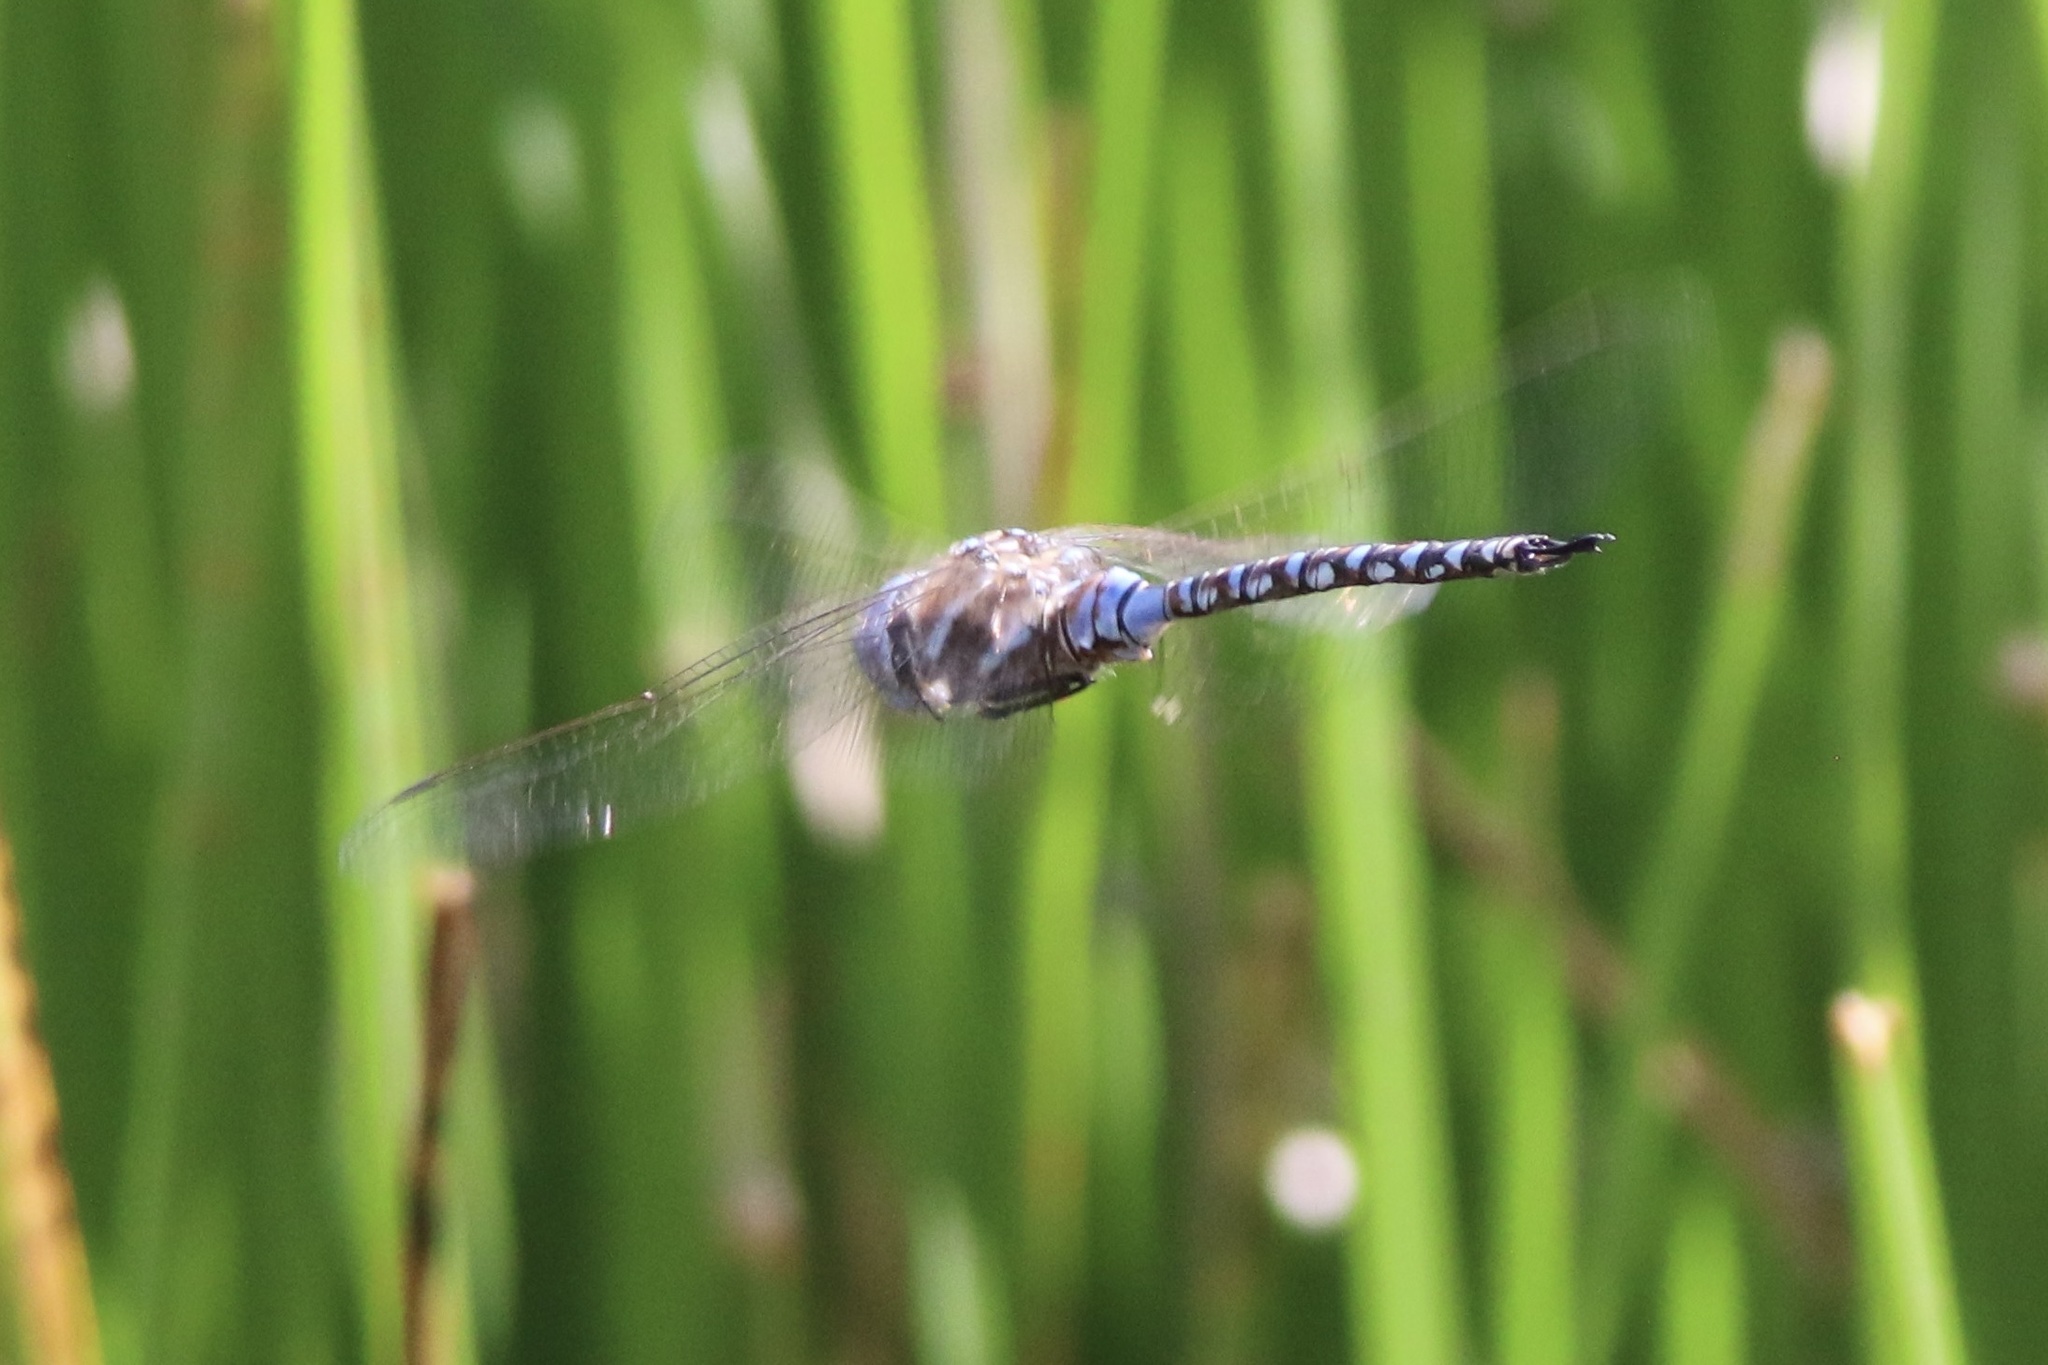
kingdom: Animalia
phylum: Arthropoda
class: Insecta
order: Odonata
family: Aeshnidae
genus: Rhionaeschna
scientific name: Rhionaeschna multicolor
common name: Blue-eyed darner
